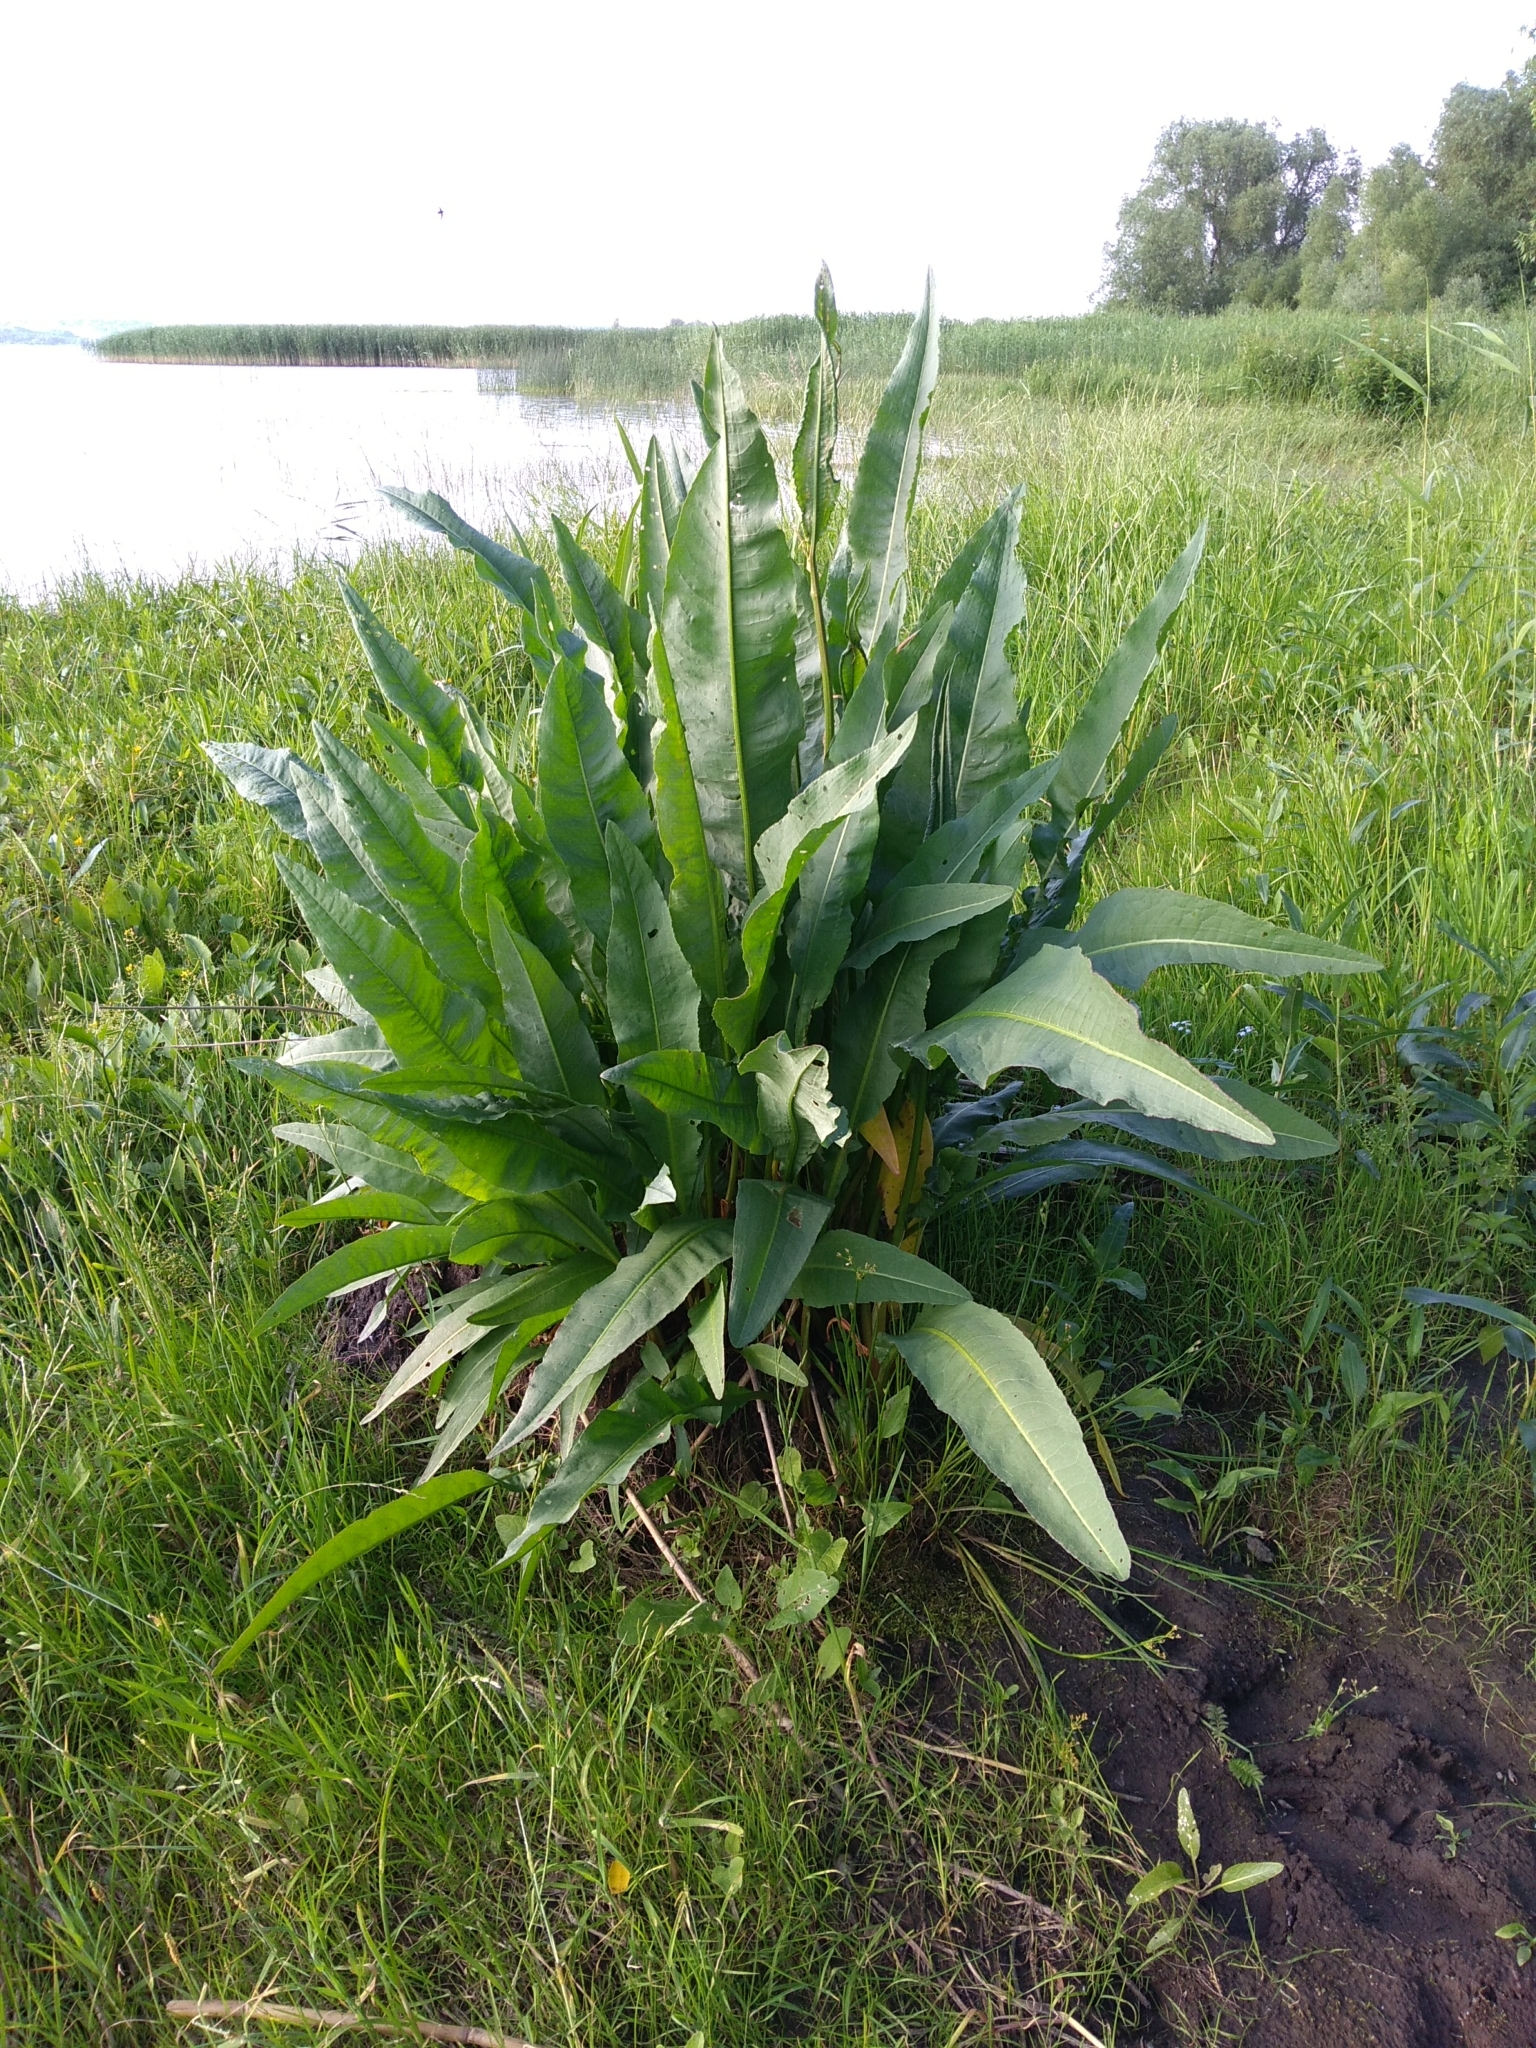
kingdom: Plantae
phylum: Tracheophyta
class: Magnoliopsida
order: Caryophyllales
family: Polygonaceae
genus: Rumex
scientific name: Rumex hydrolapathum
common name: Water dock
